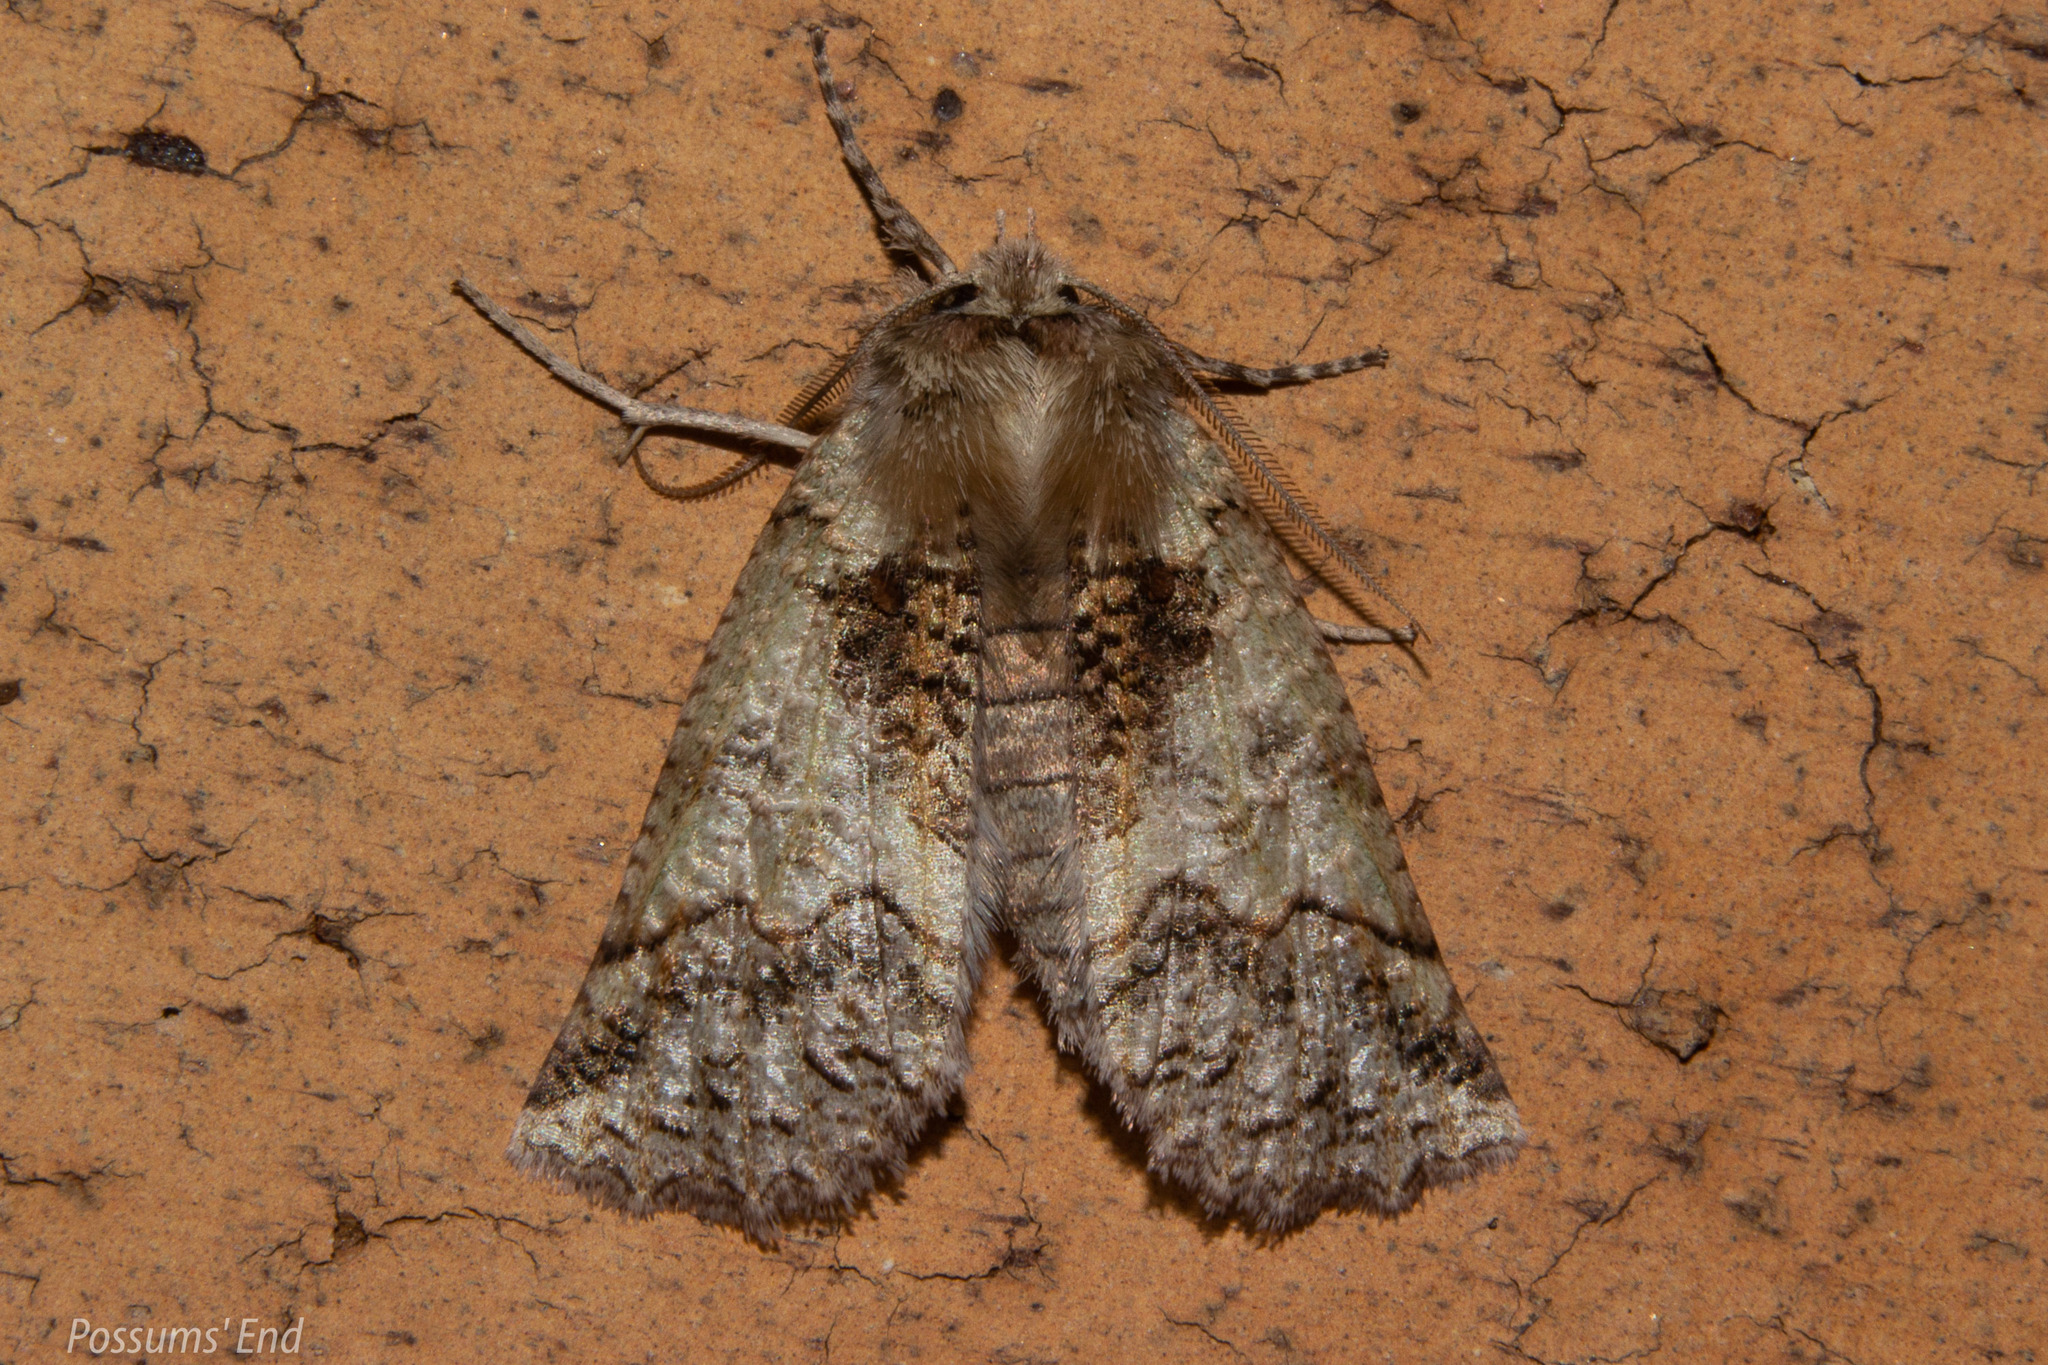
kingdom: Animalia
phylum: Arthropoda
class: Insecta
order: Lepidoptera
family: Geometridae
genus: Declana
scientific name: Declana floccosa
